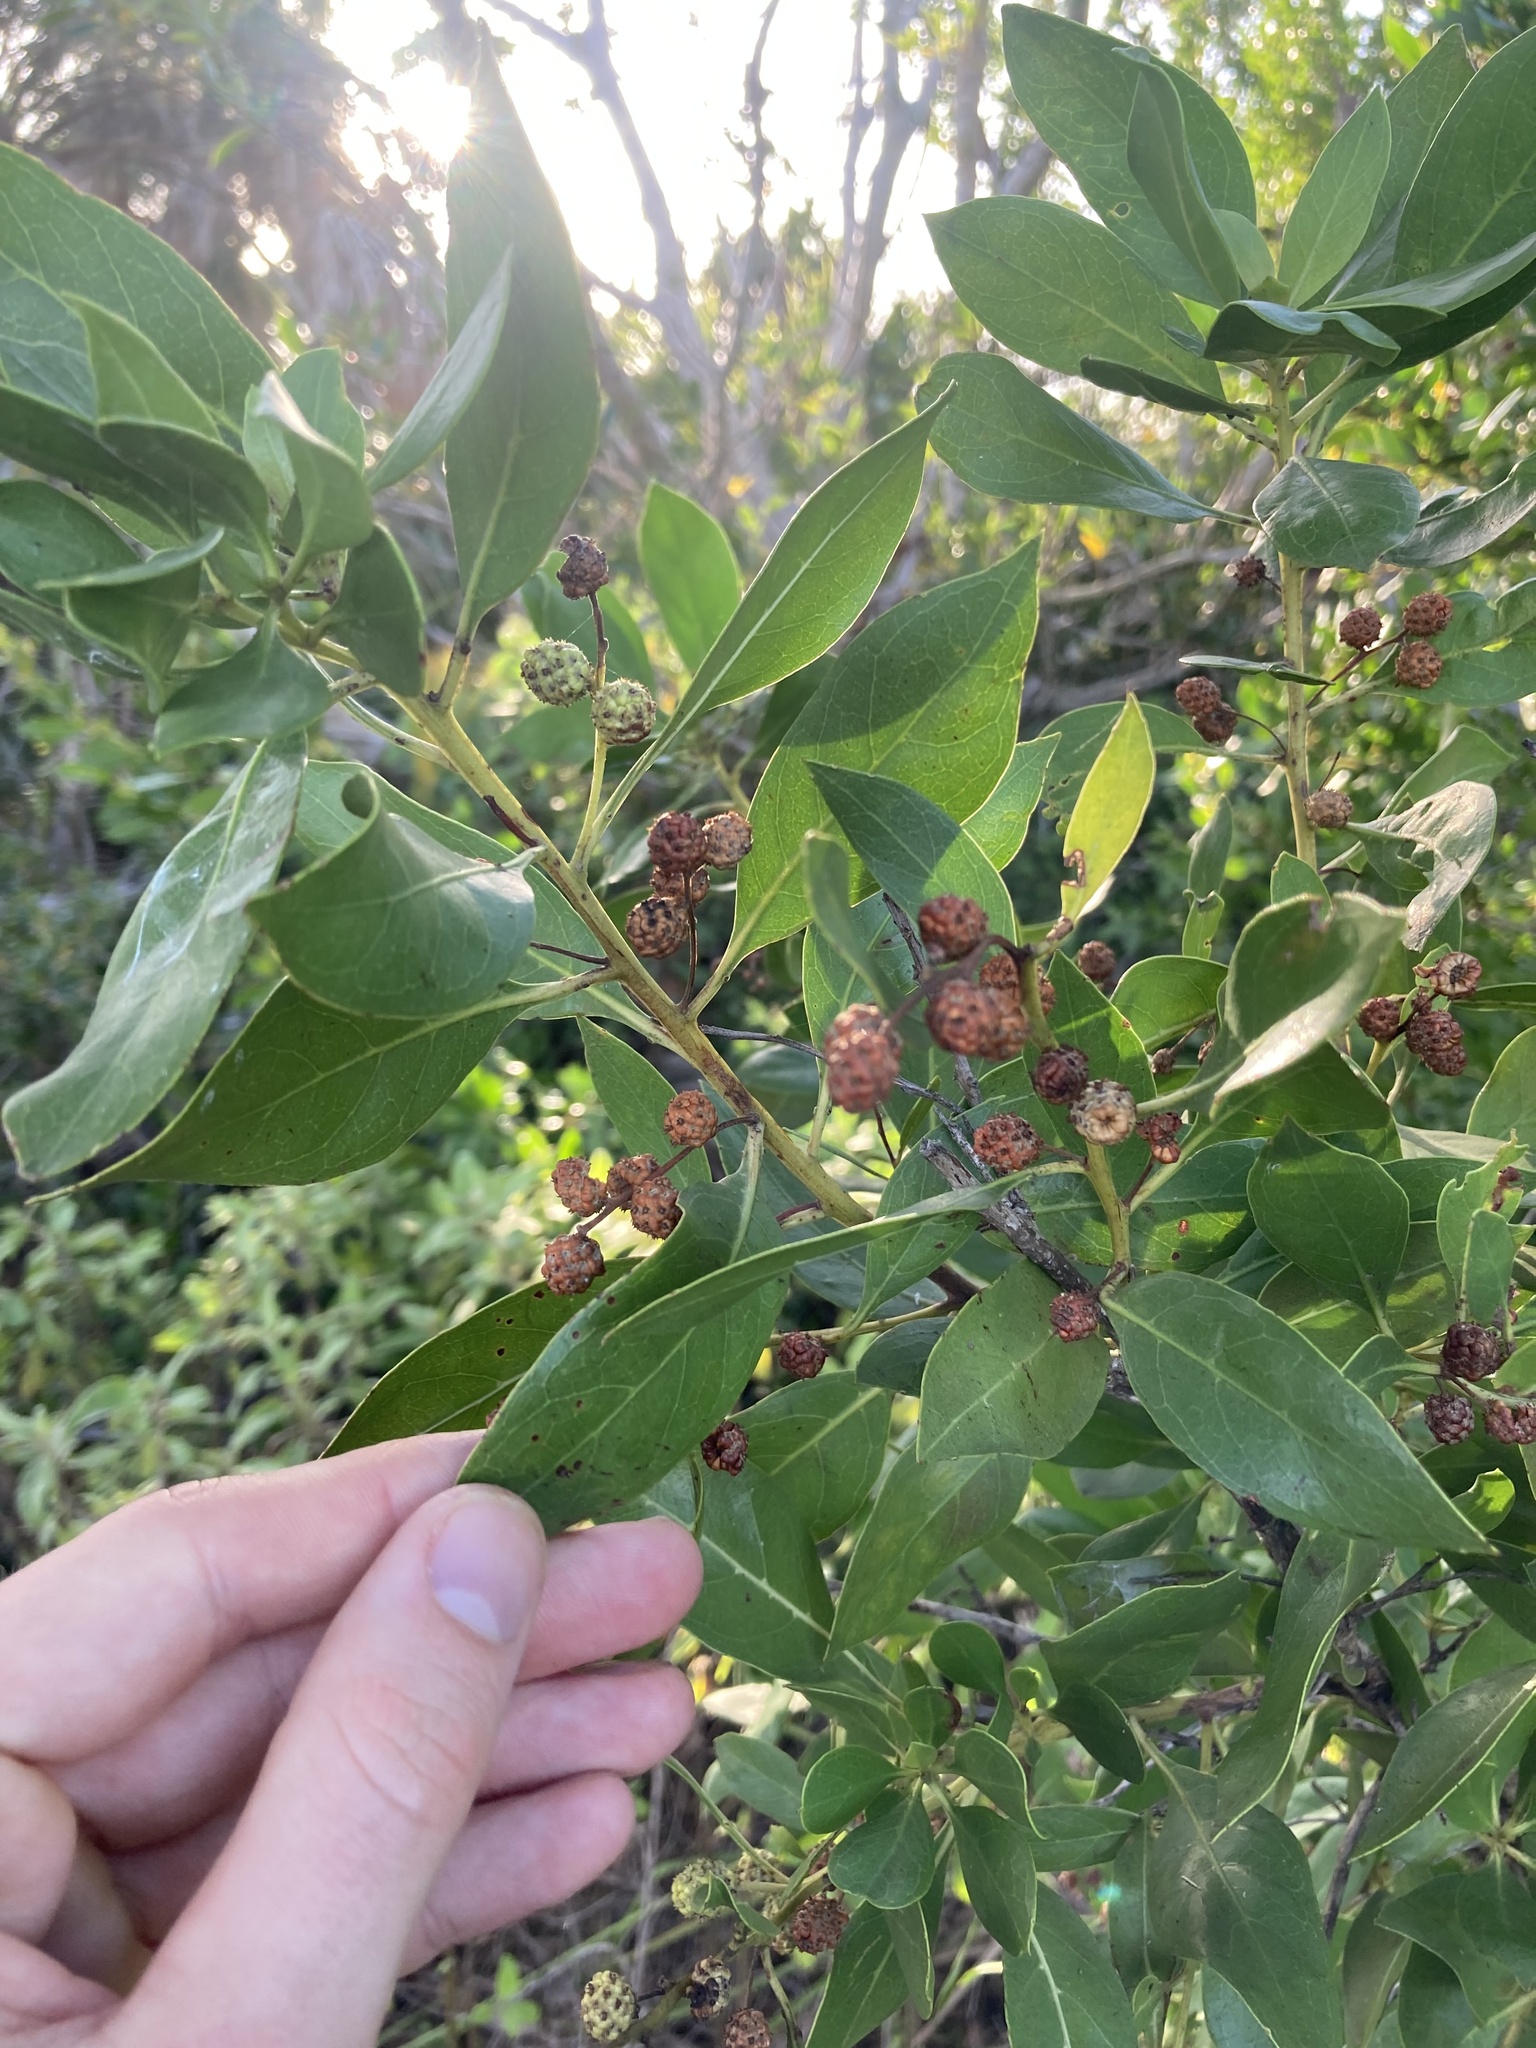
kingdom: Plantae
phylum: Tracheophyta
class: Magnoliopsida
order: Myrtales
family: Combretaceae
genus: Conocarpus
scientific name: Conocarpus erectus
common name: Button mangrove
